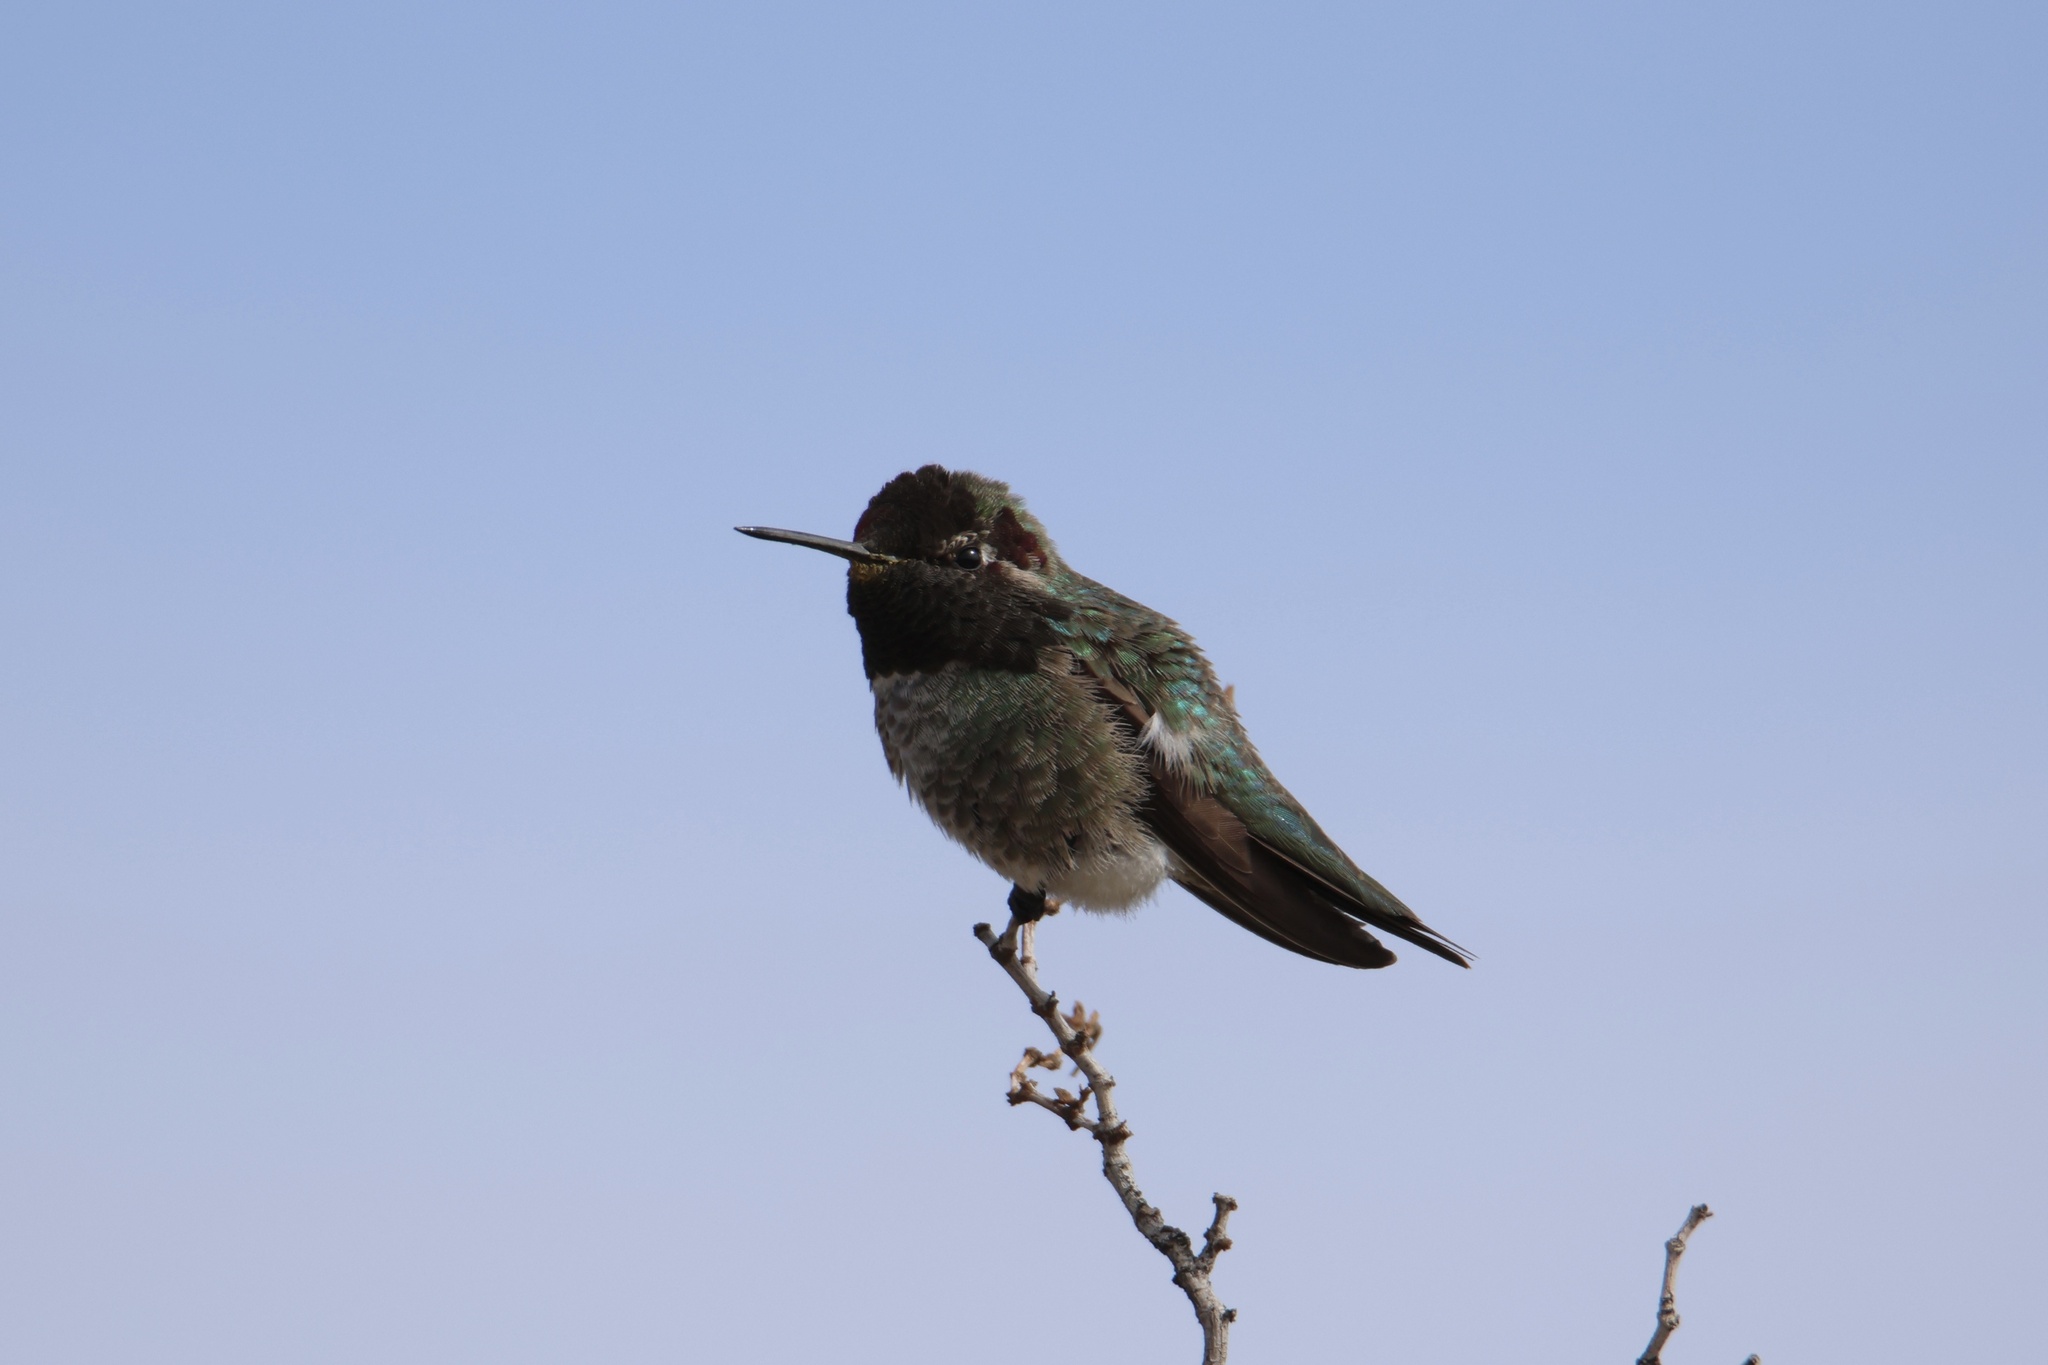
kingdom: Animalia
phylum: Chordata
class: Aves
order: Apodiformes
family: Trochilidae
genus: Calypte
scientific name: Calypte anna
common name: Anna's hummingbird
